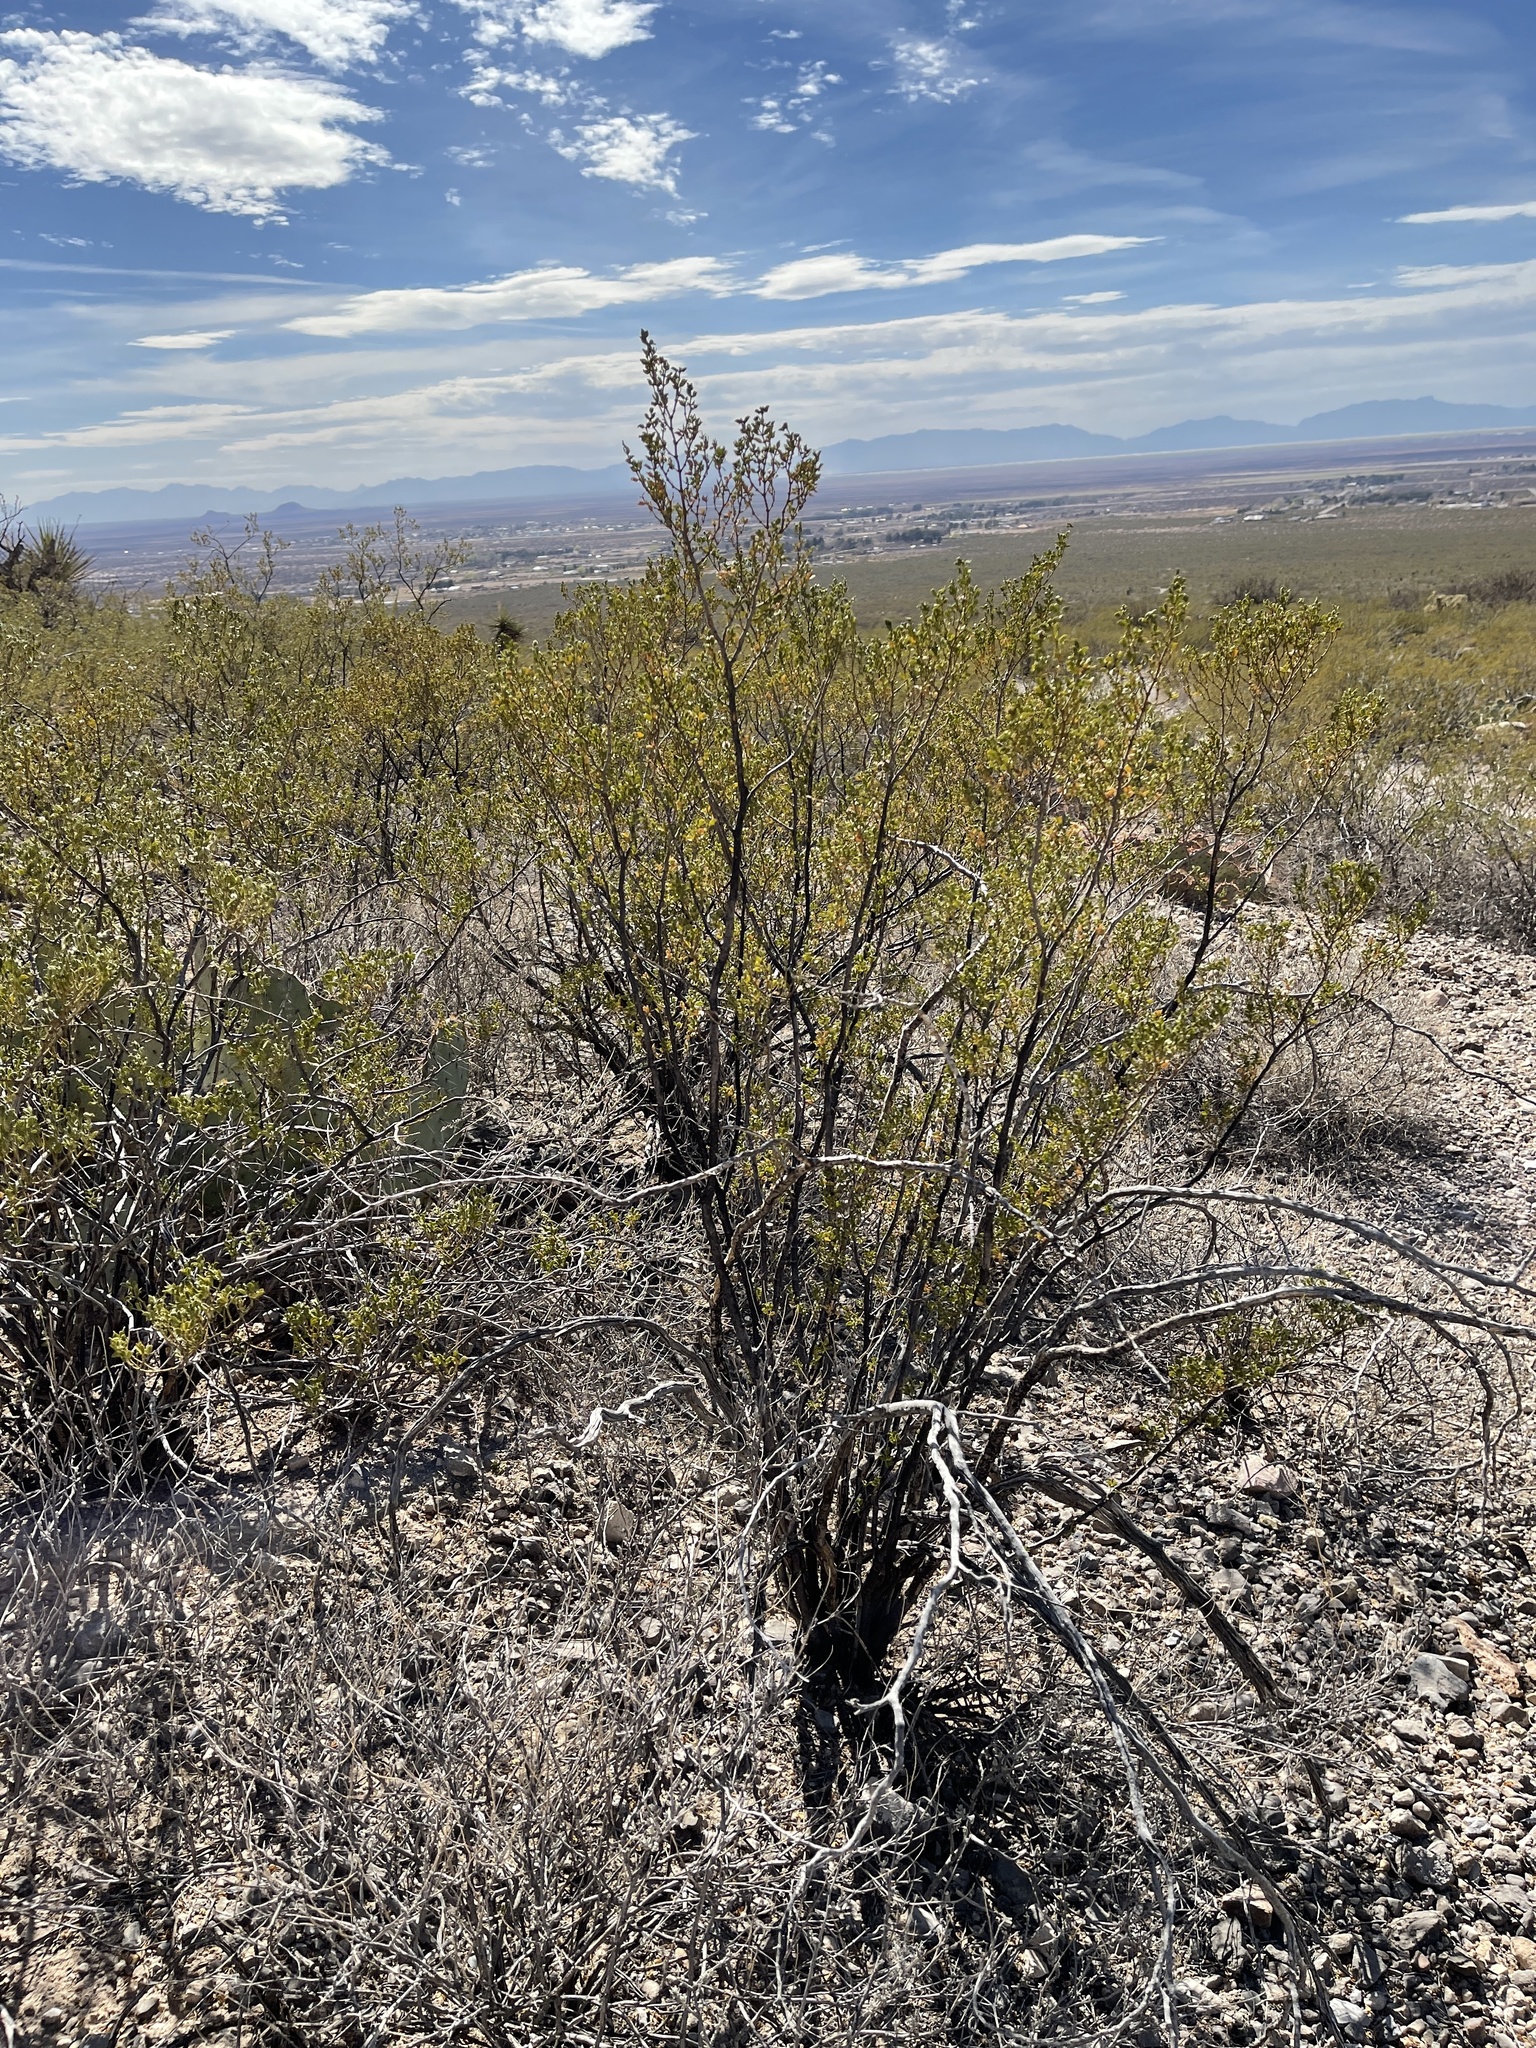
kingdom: Plantae
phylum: Tracheophyta
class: Magnoliopsida
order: Zygophyllales
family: Zygophyllaceae
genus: Larrea
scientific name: Larrea tridentata
